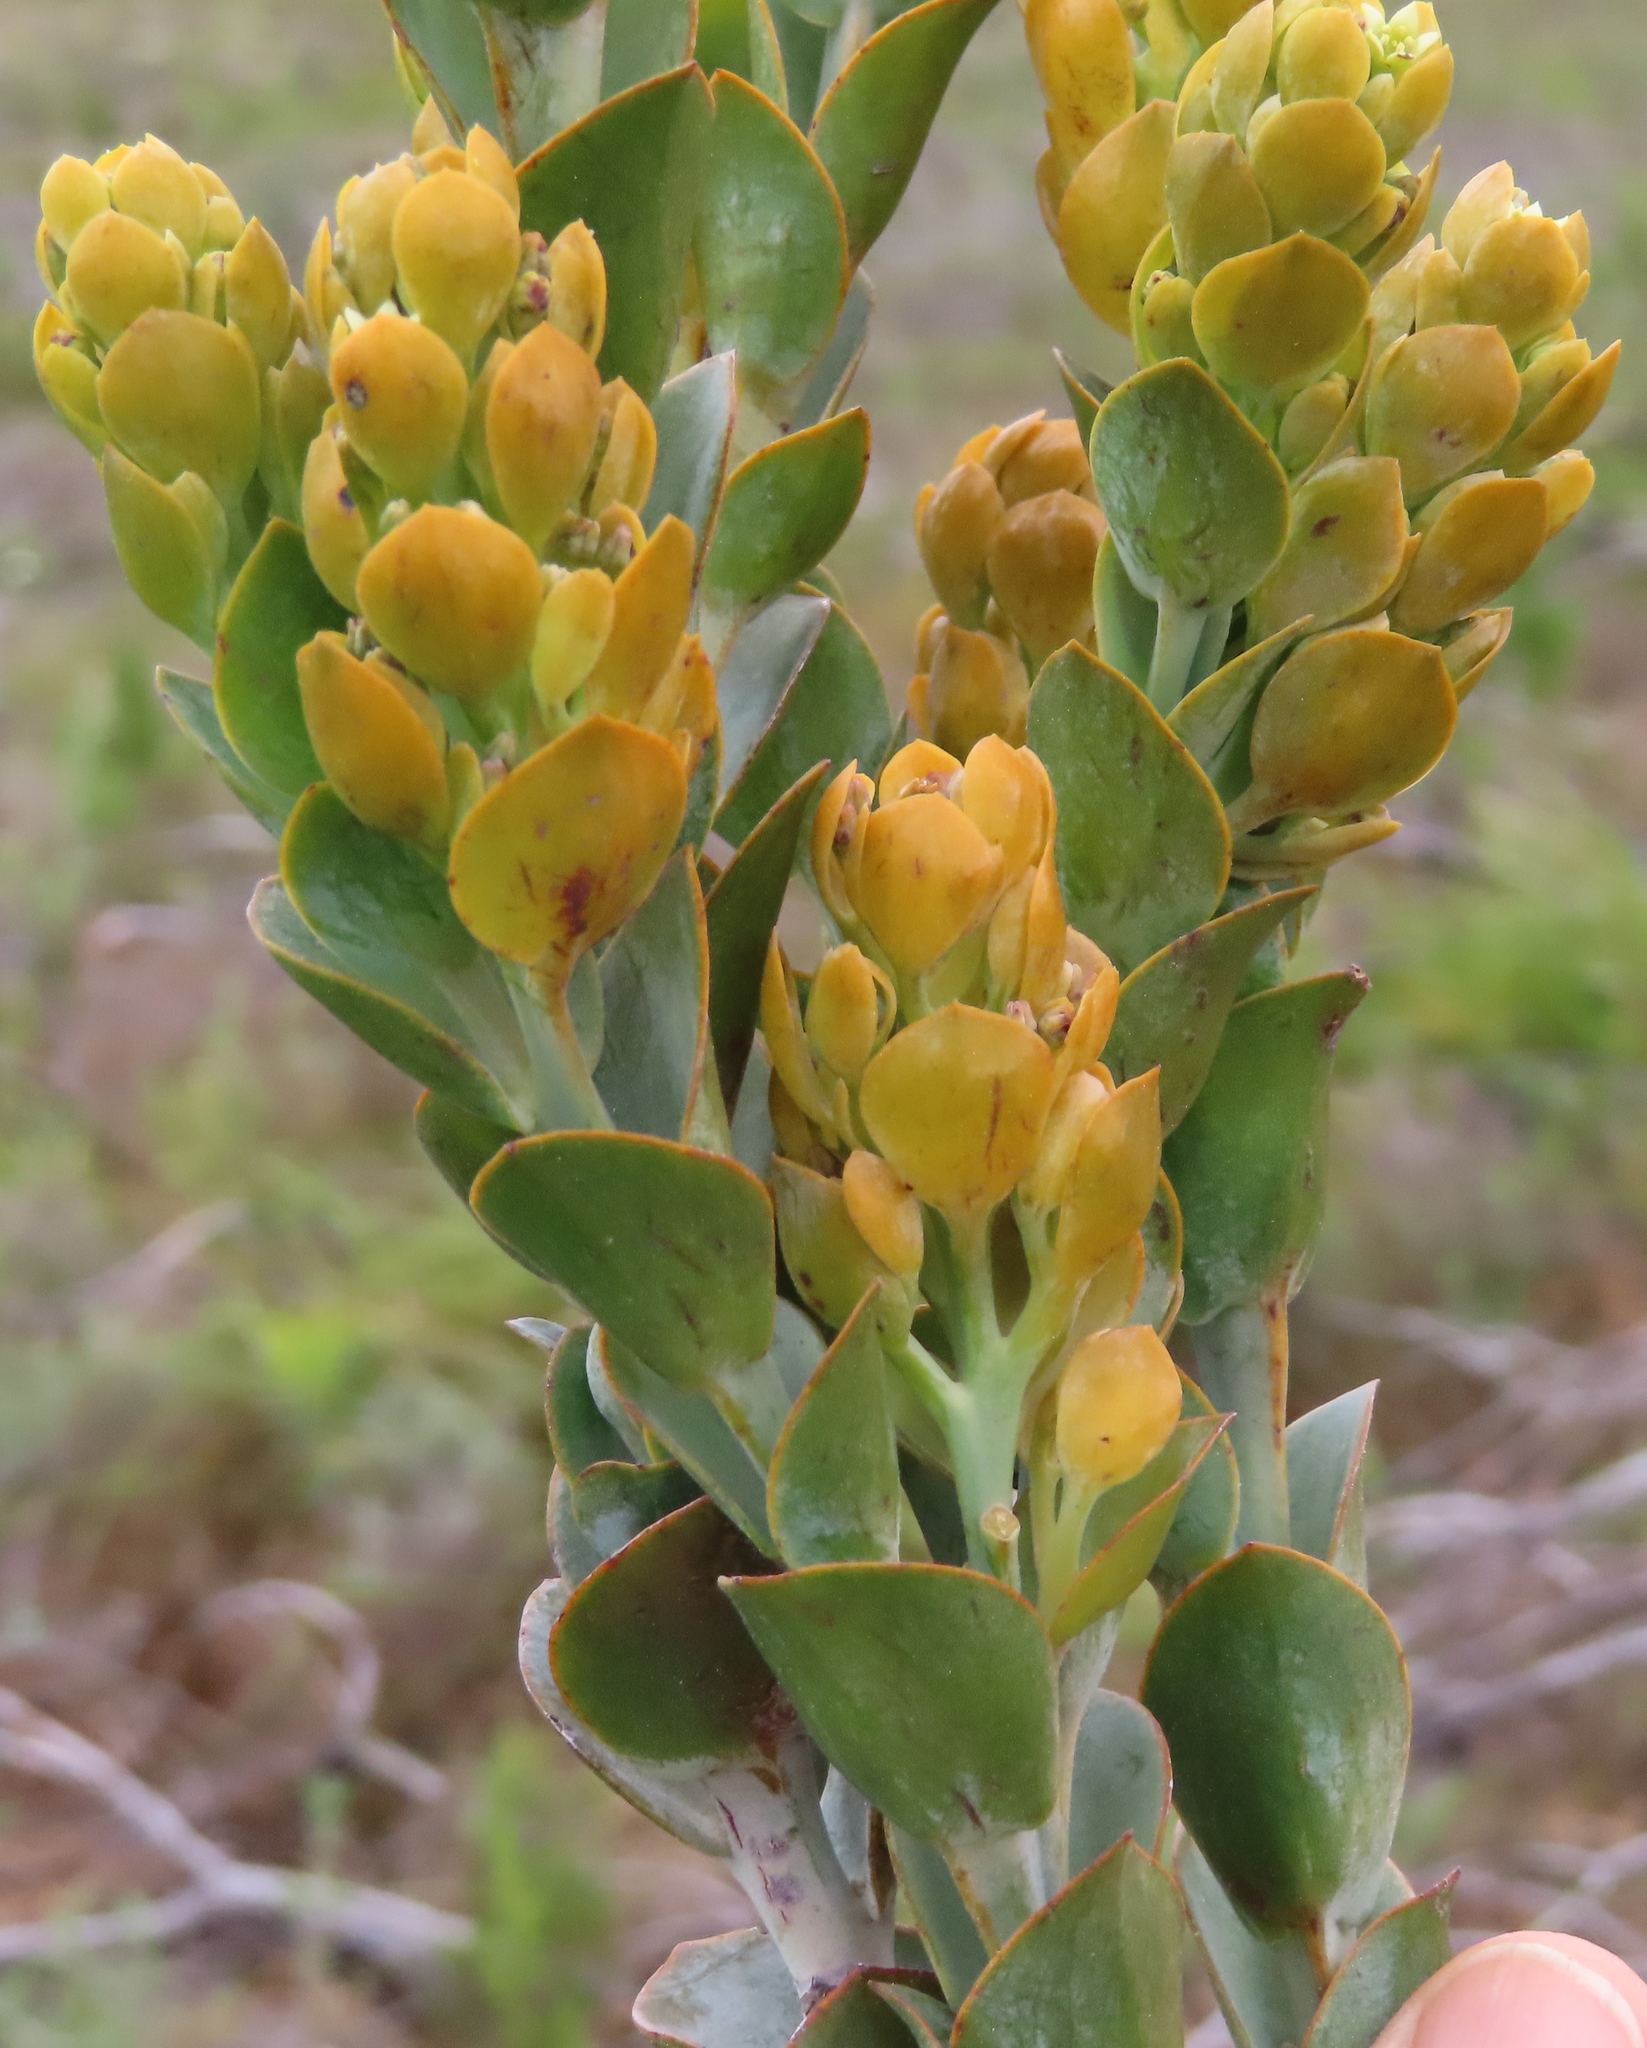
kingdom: Plantae
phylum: Tracheophyta
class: Magnoliopsida
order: Santalales
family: Thesiaceae
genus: Thesium
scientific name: Thesium euphorbioides
